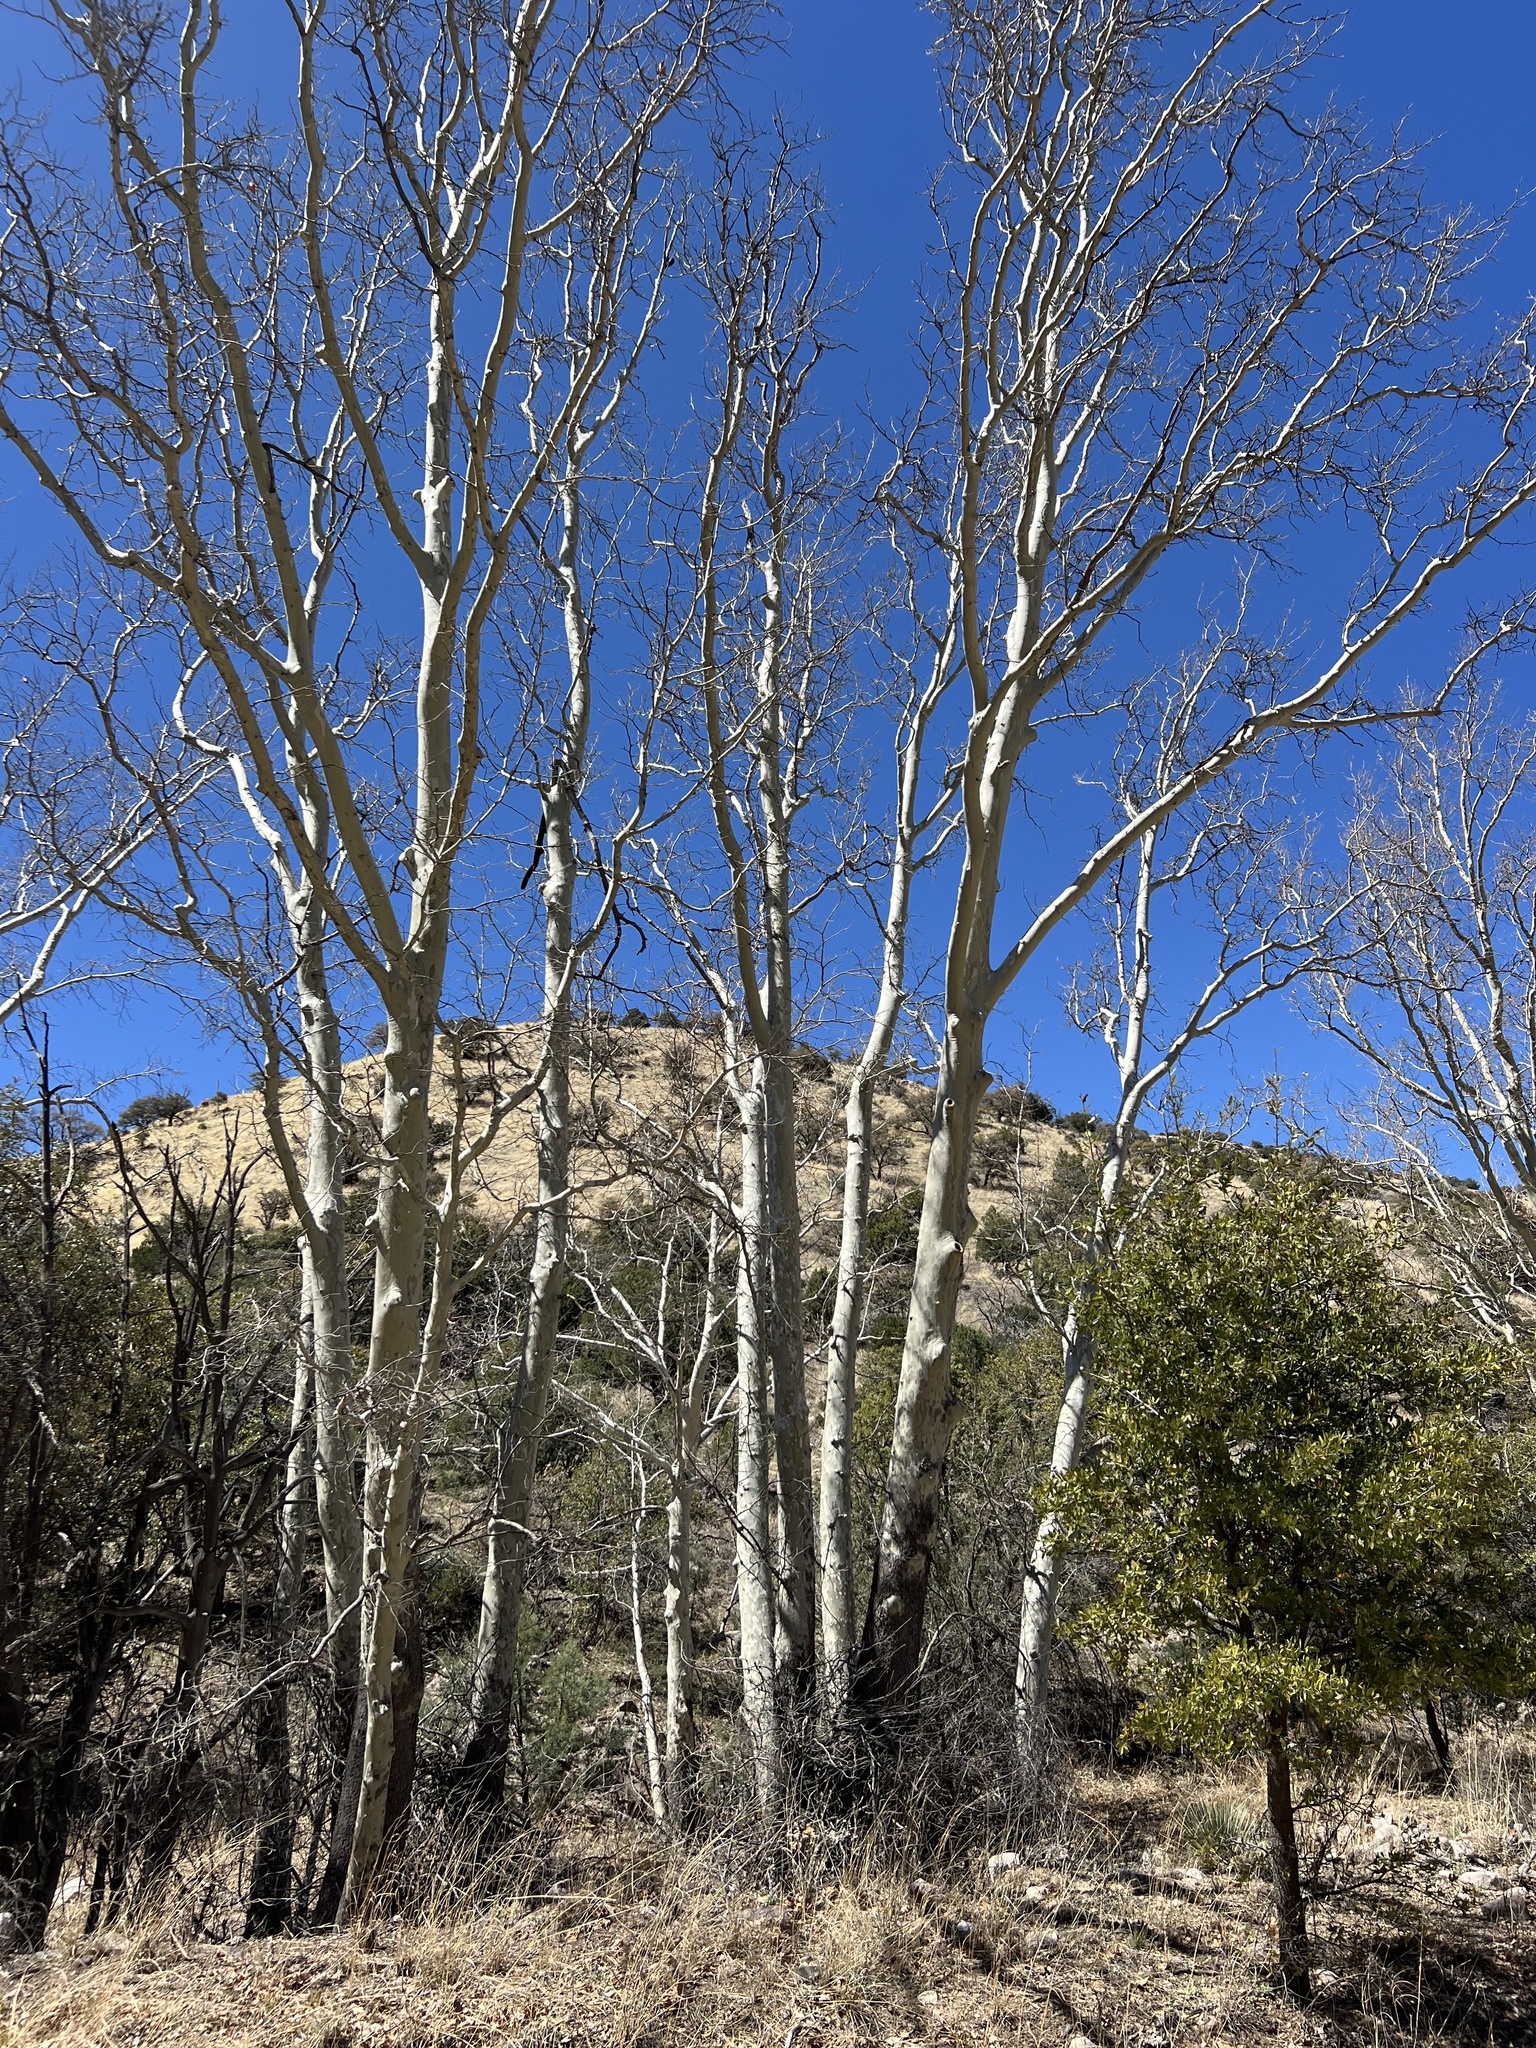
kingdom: Plantae
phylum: Tracheophyta
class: Magnoliopsida
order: Proteales
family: Platanaceae
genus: Platanus
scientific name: Platanus wrightii
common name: Arizona sycamore
